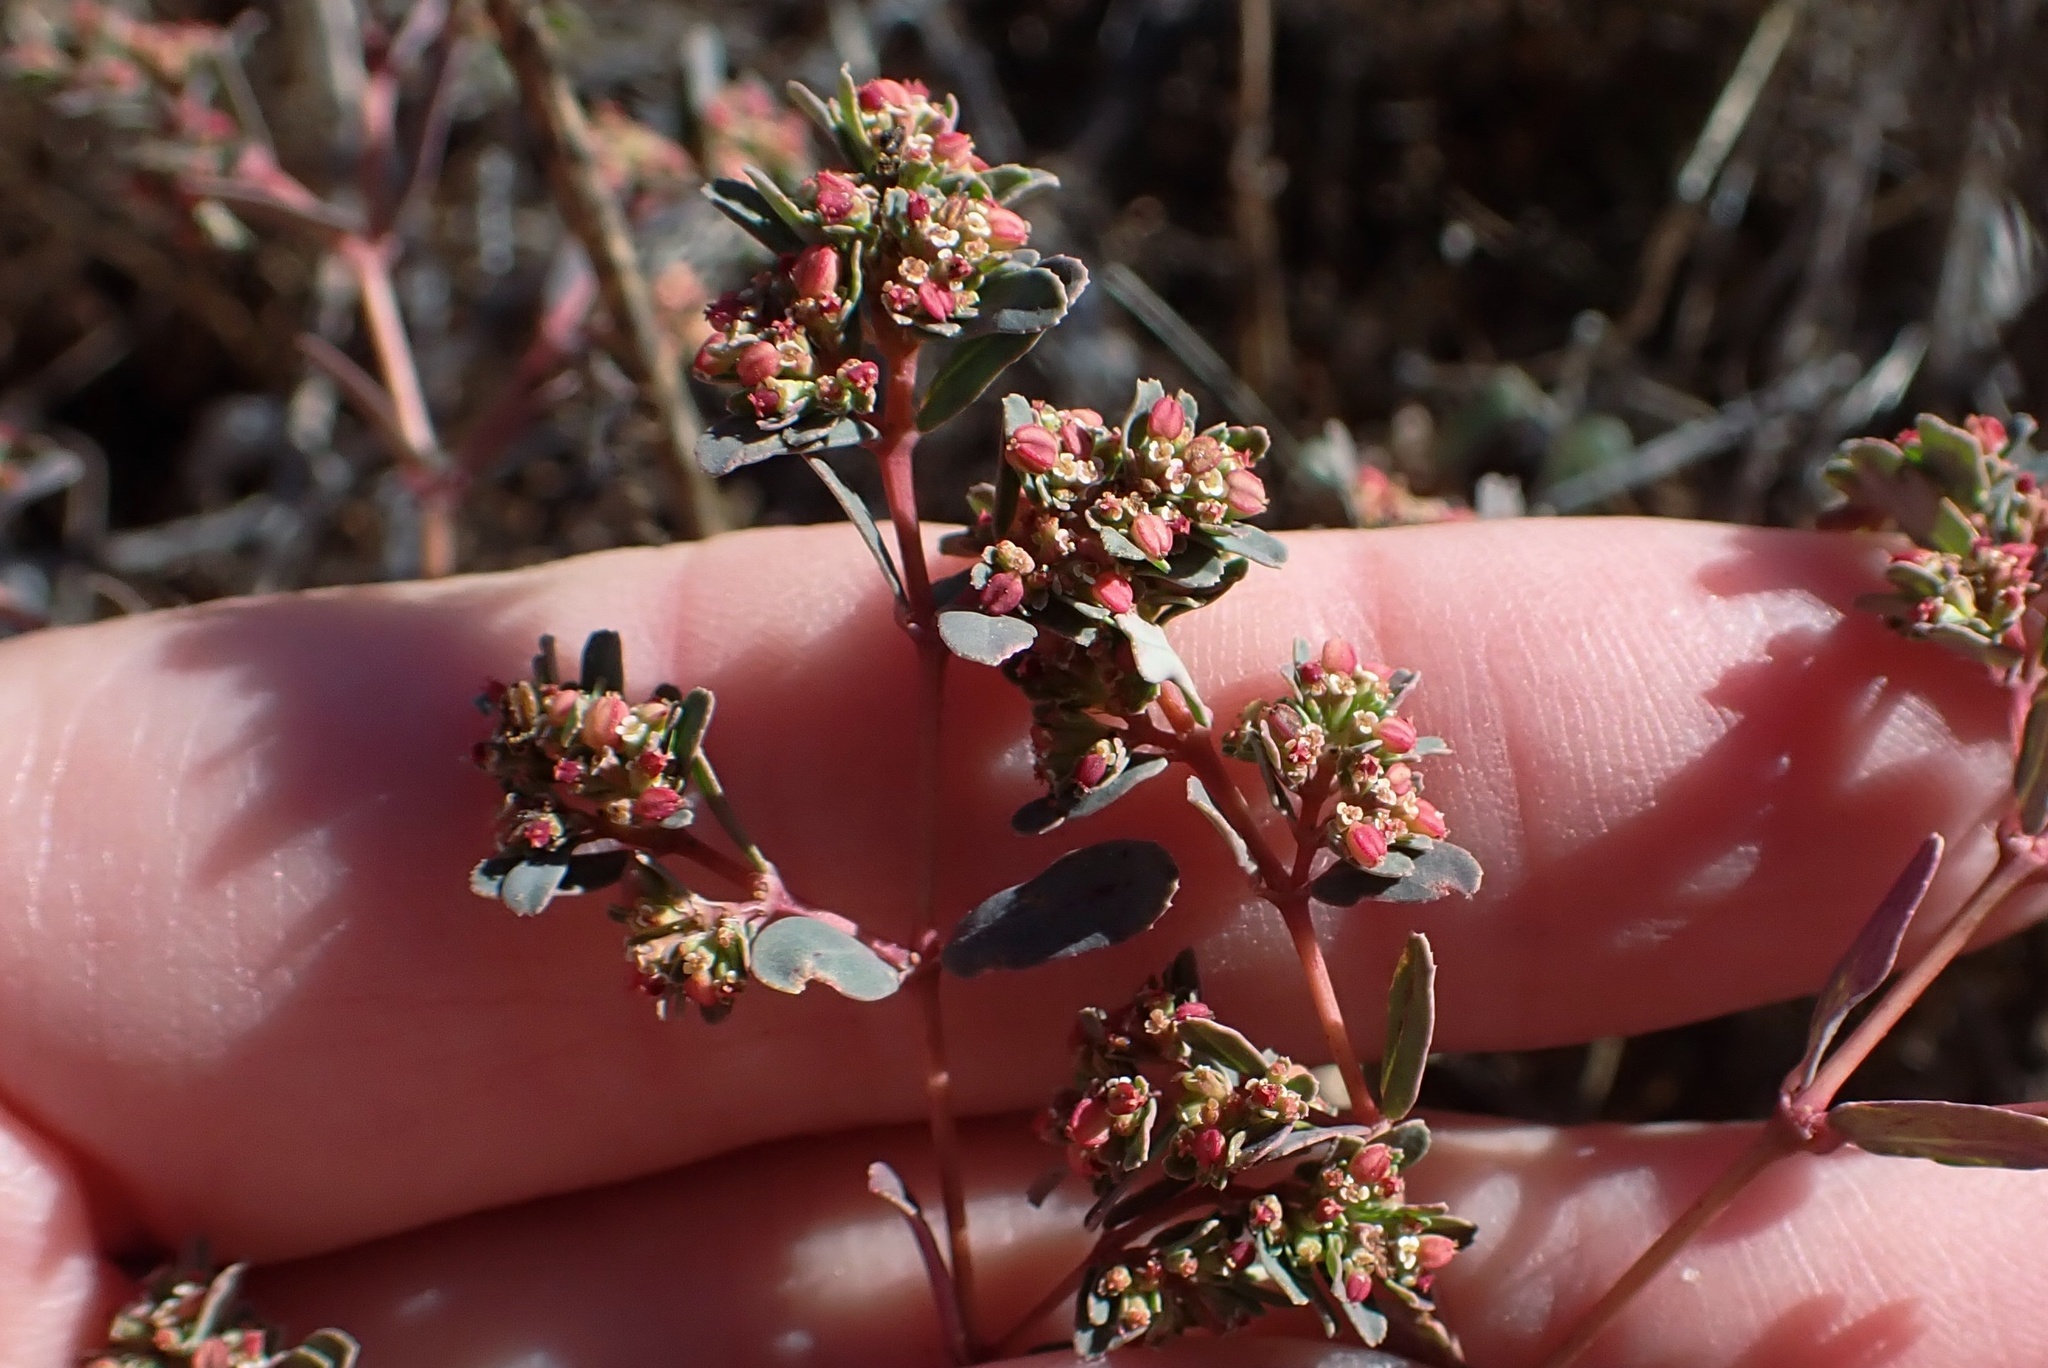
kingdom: Plantae
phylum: Tracheophyta
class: Magnoliopsida
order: Malpighiales
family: Euphorbiaceae
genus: Euphorbia
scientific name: Euphorbia serpillifolia
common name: Thyme-leaf spurge
